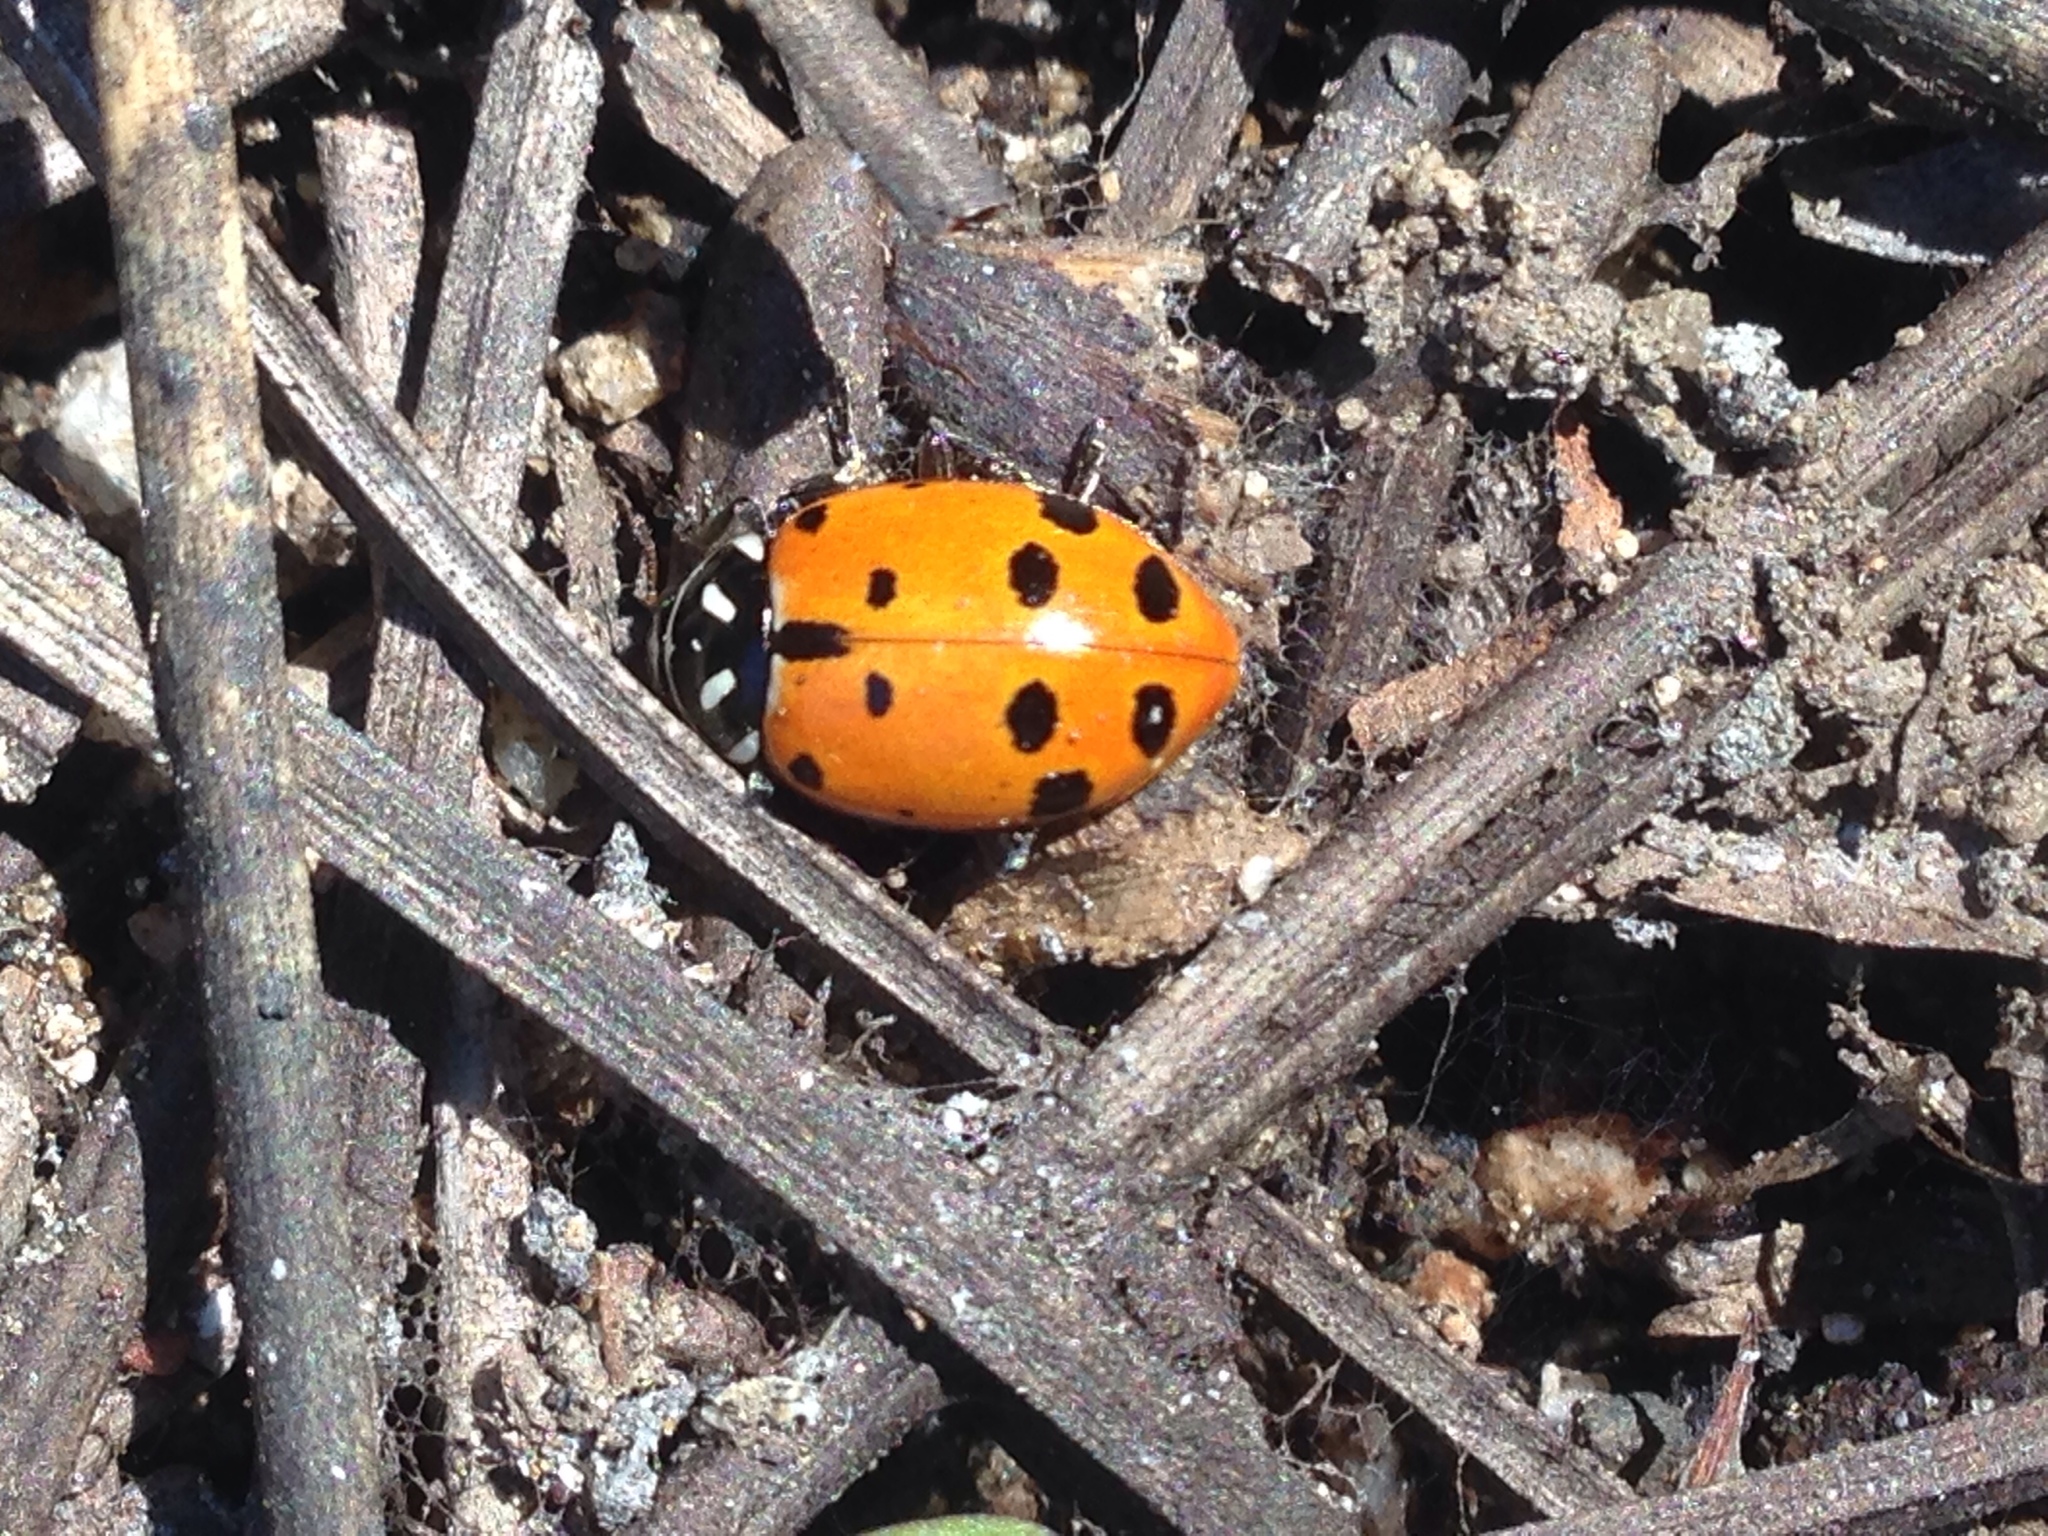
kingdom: Animalia
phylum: Arthropoda
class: Insecta
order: Coleoptera
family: Coccinellidae
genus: Hippodamia
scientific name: Hippodamia convergens
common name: Convergent lady beetle
